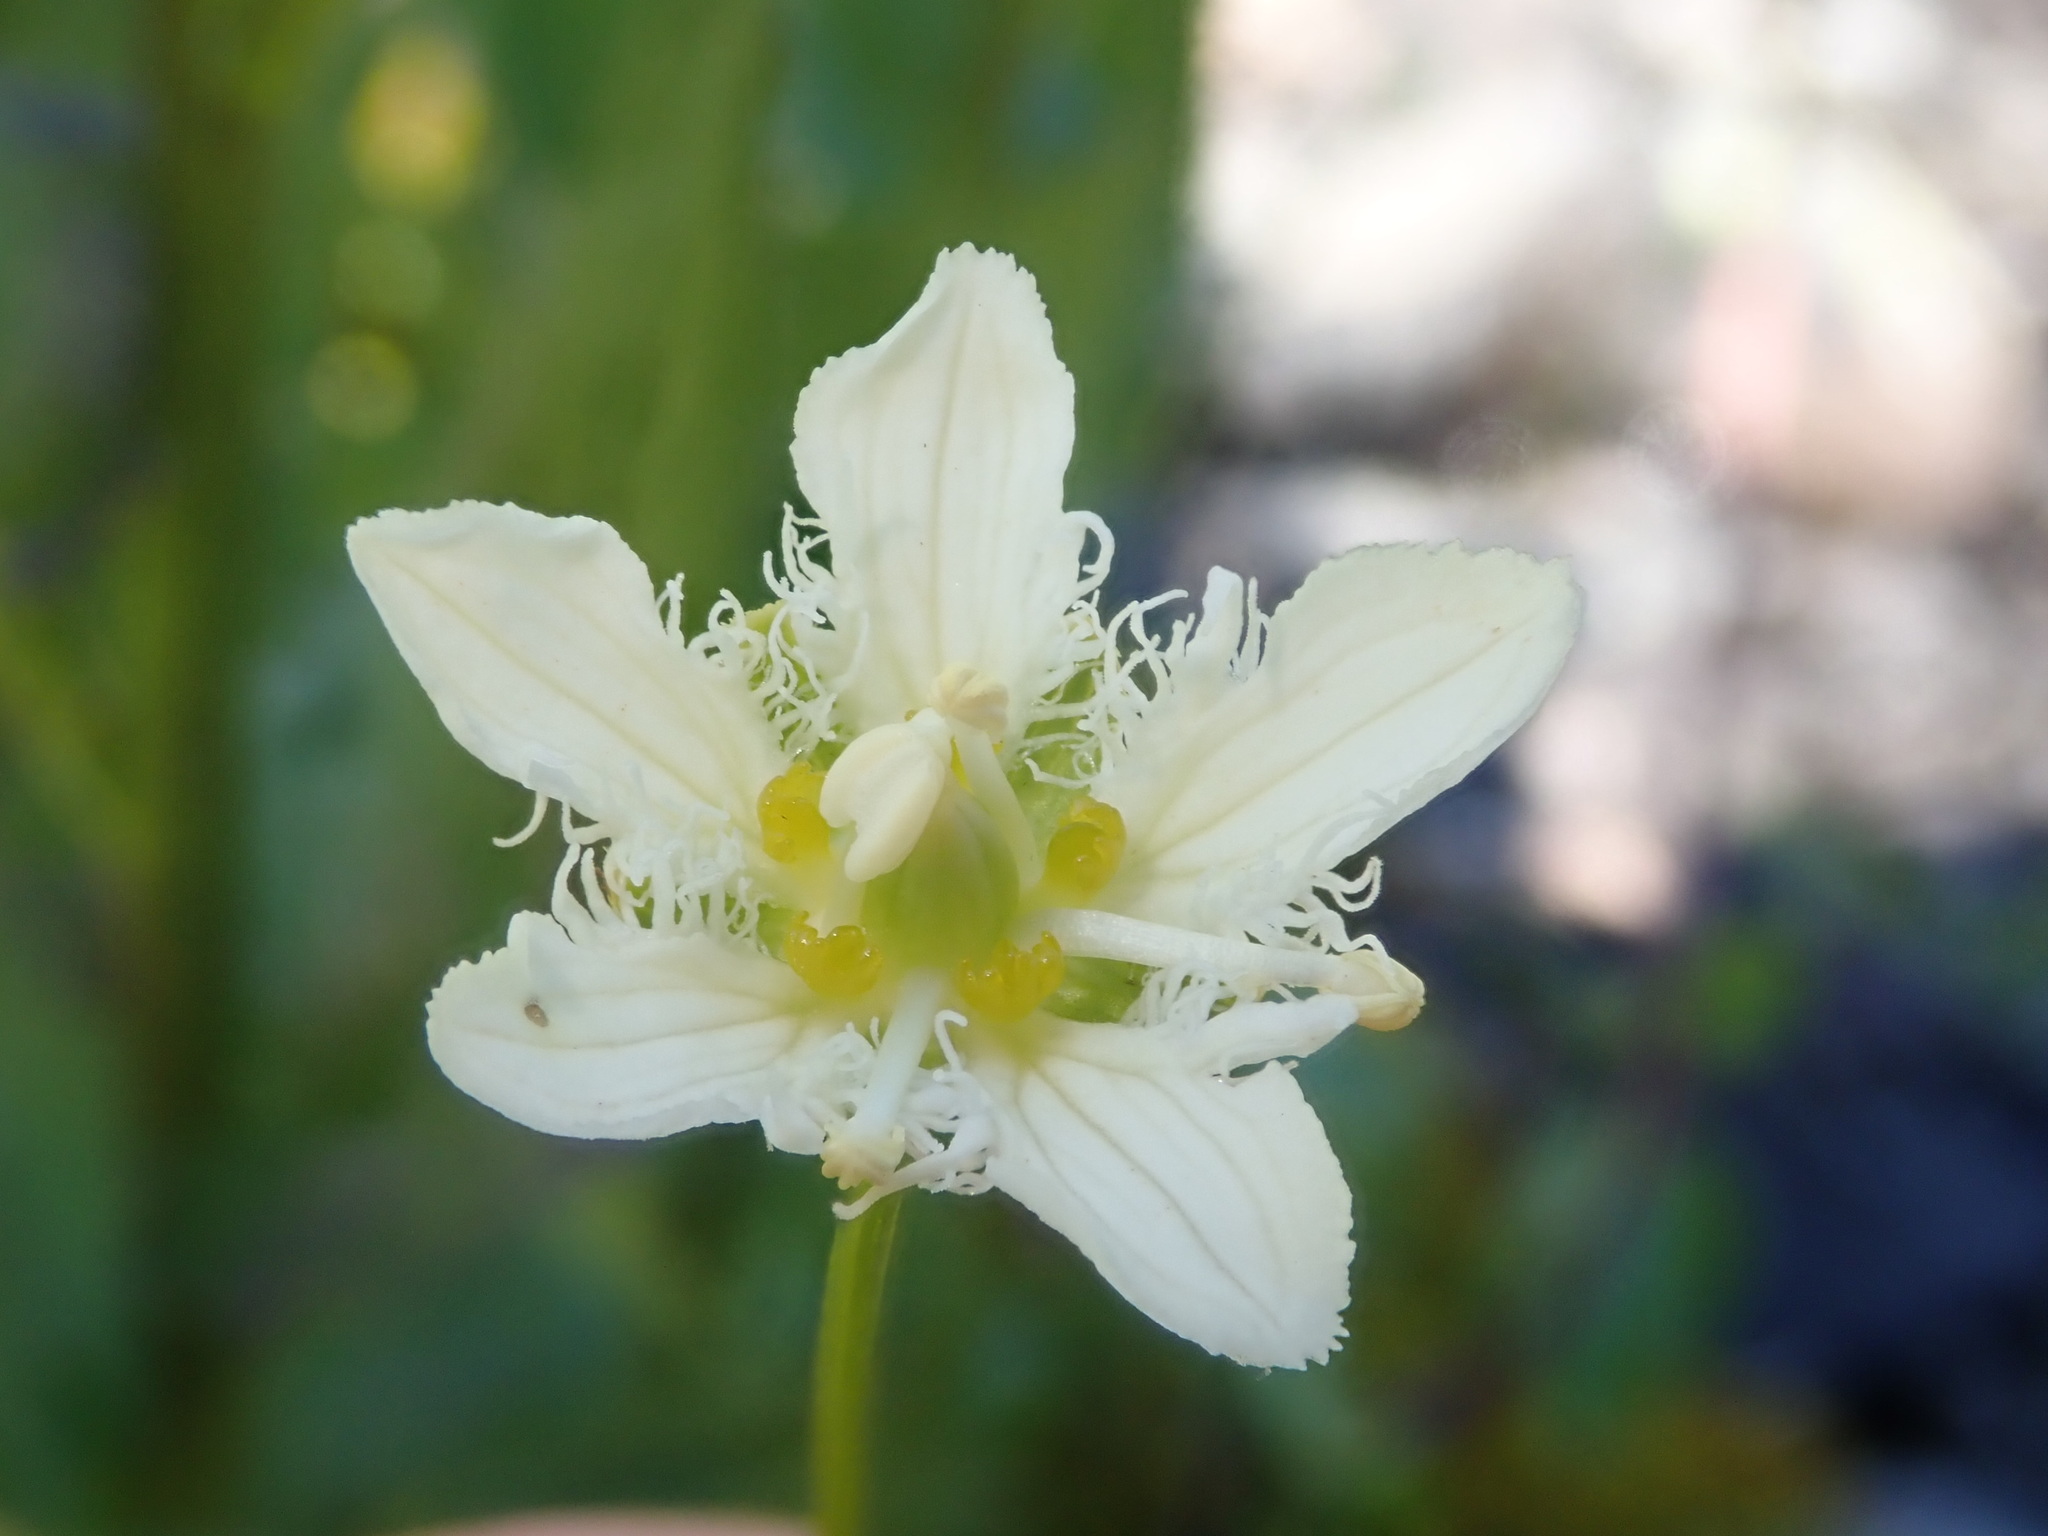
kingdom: Plantae
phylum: Tracheophyta
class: Magnoliopsida
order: Celastrales
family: Parnassiaceae
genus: Parnassia
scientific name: Parnassia fimbriata
